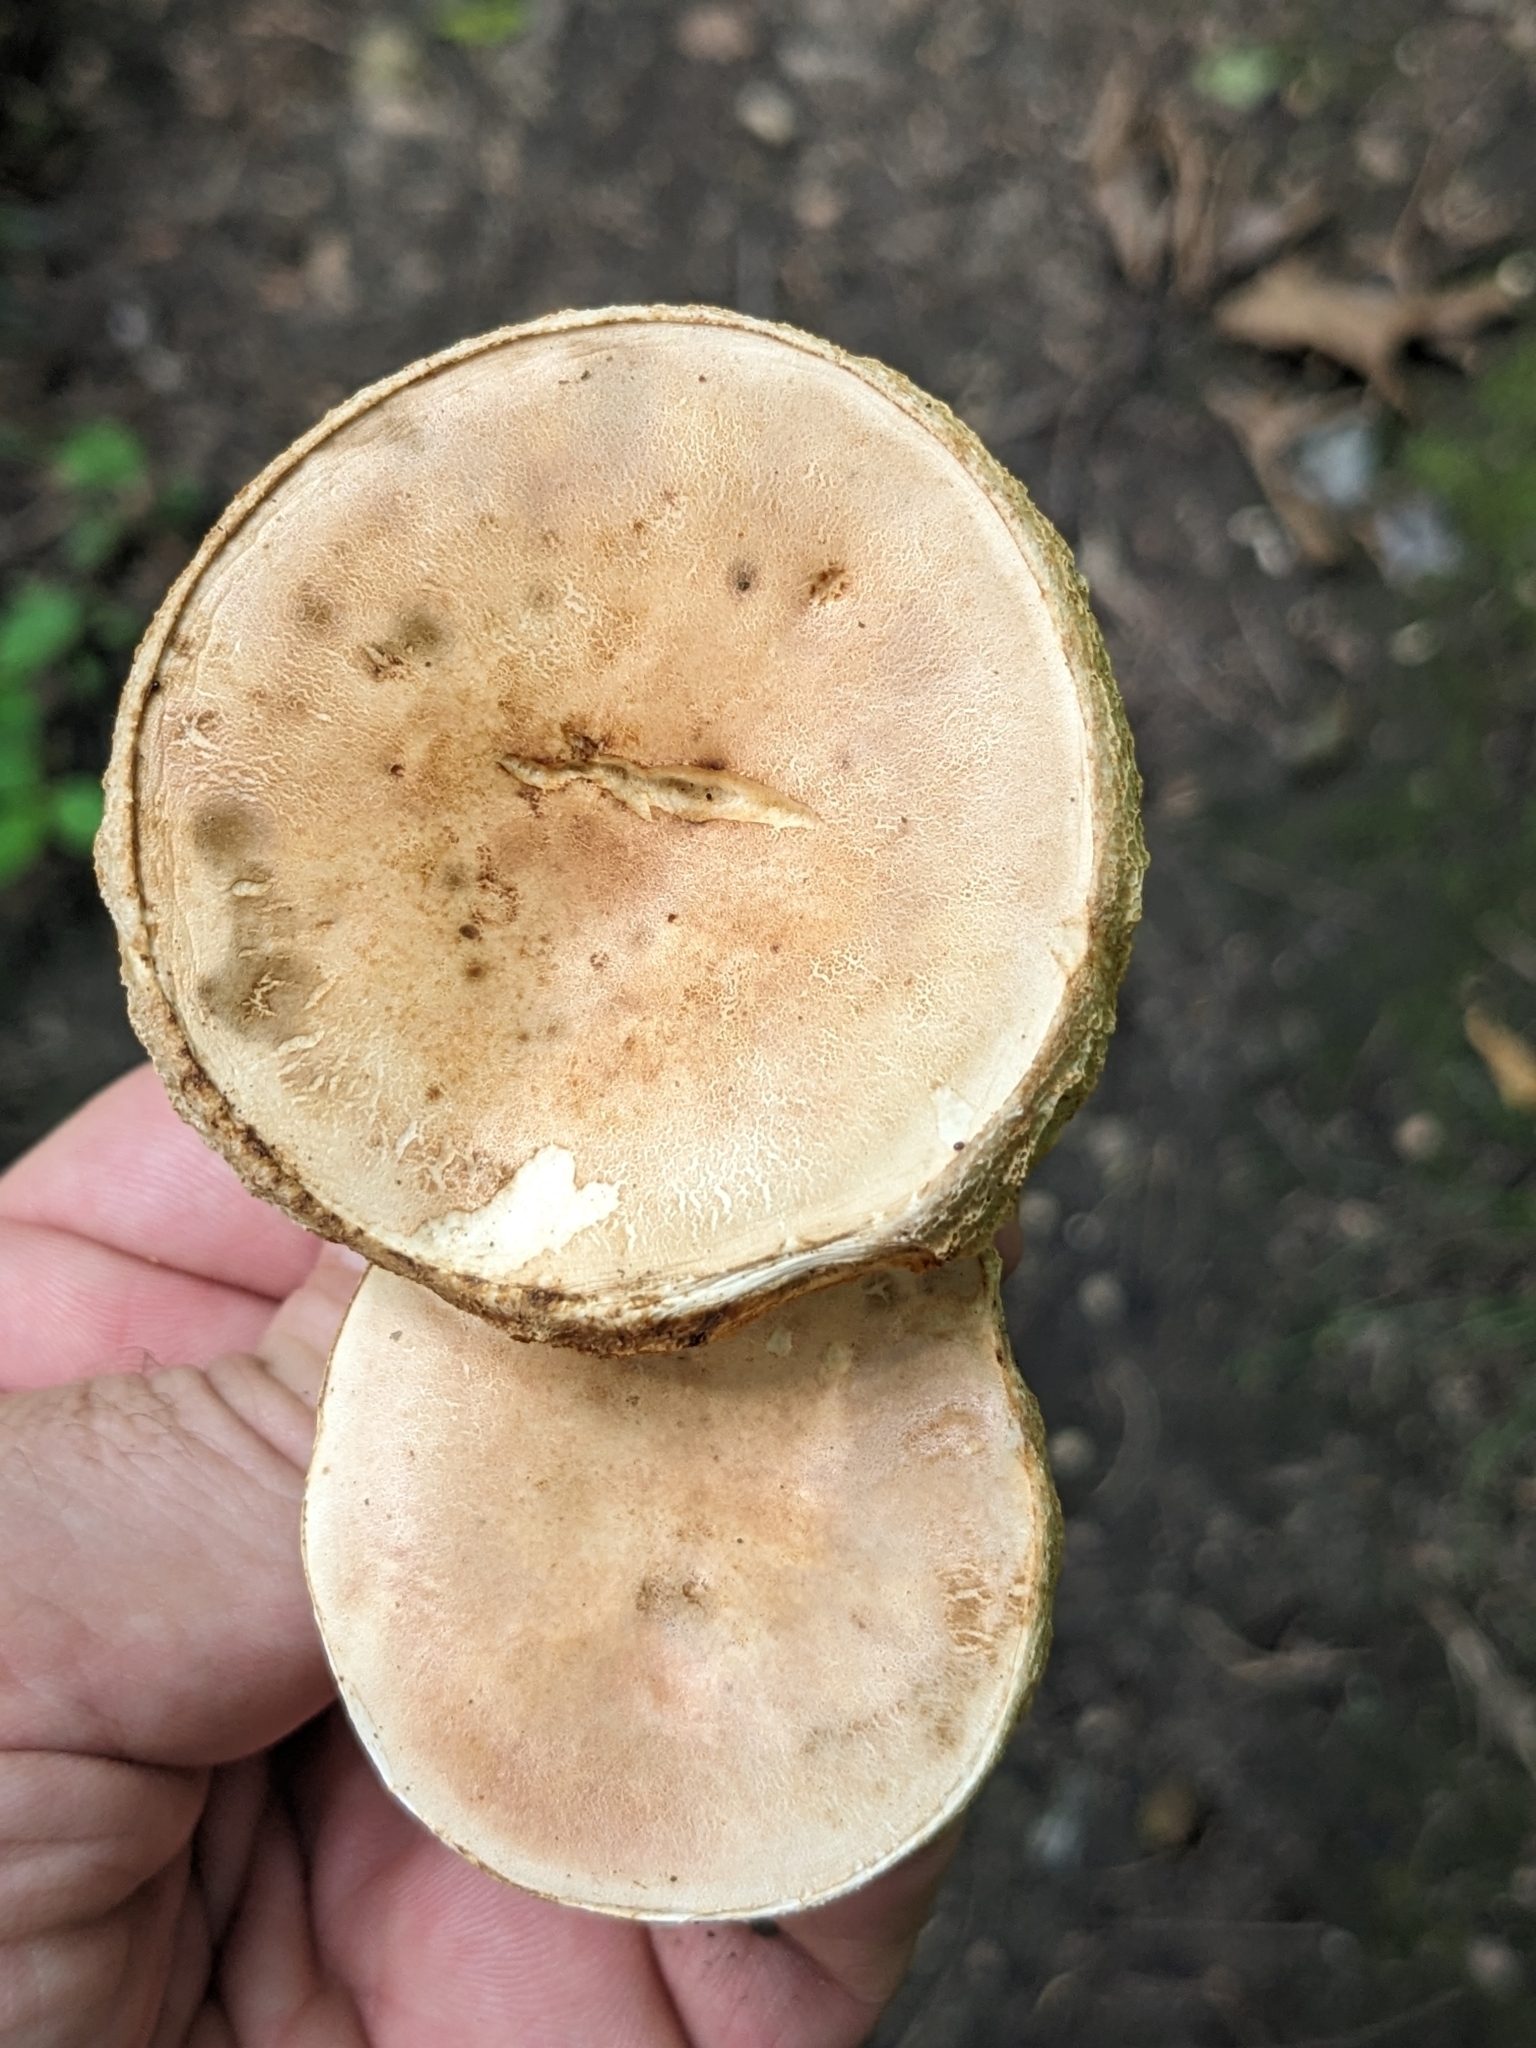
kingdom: Fungi
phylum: Basidiomycota
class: Agaricomycetes
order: Boletales
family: Gyroporaceae
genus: Gyroporus
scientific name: Gyroporus borealis
